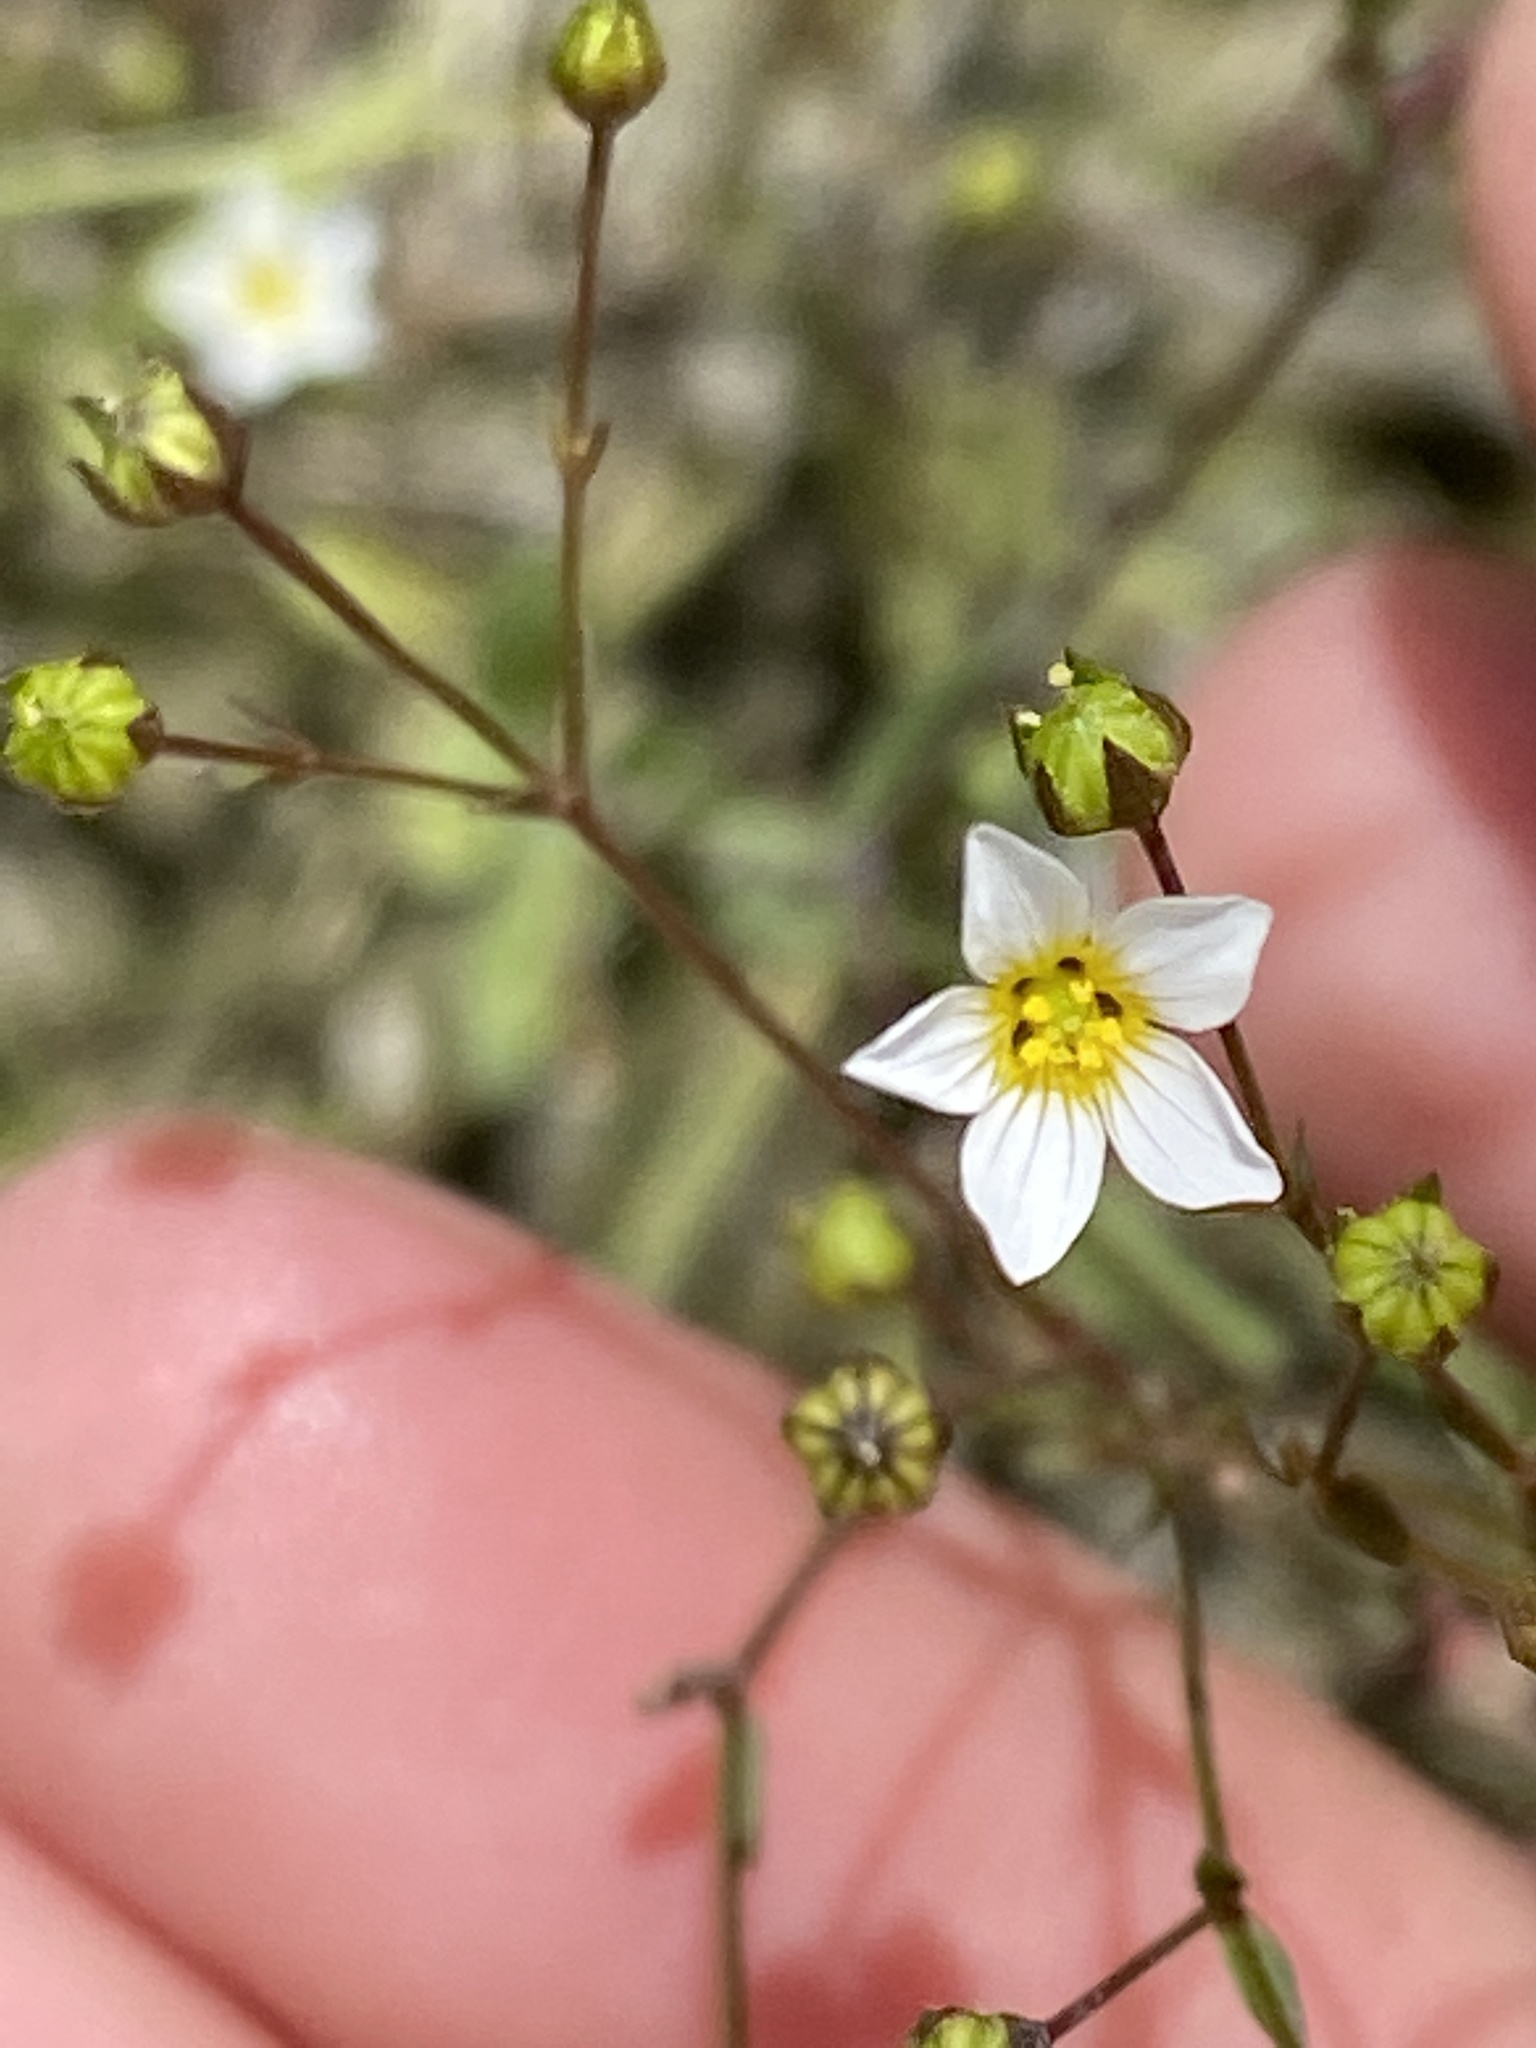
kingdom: Plantae
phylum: Tracheophyta
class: Magnoliopsida
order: Malpighiales
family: Linaceae
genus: Linum
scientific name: Linum catharticum
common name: Fairy flax
